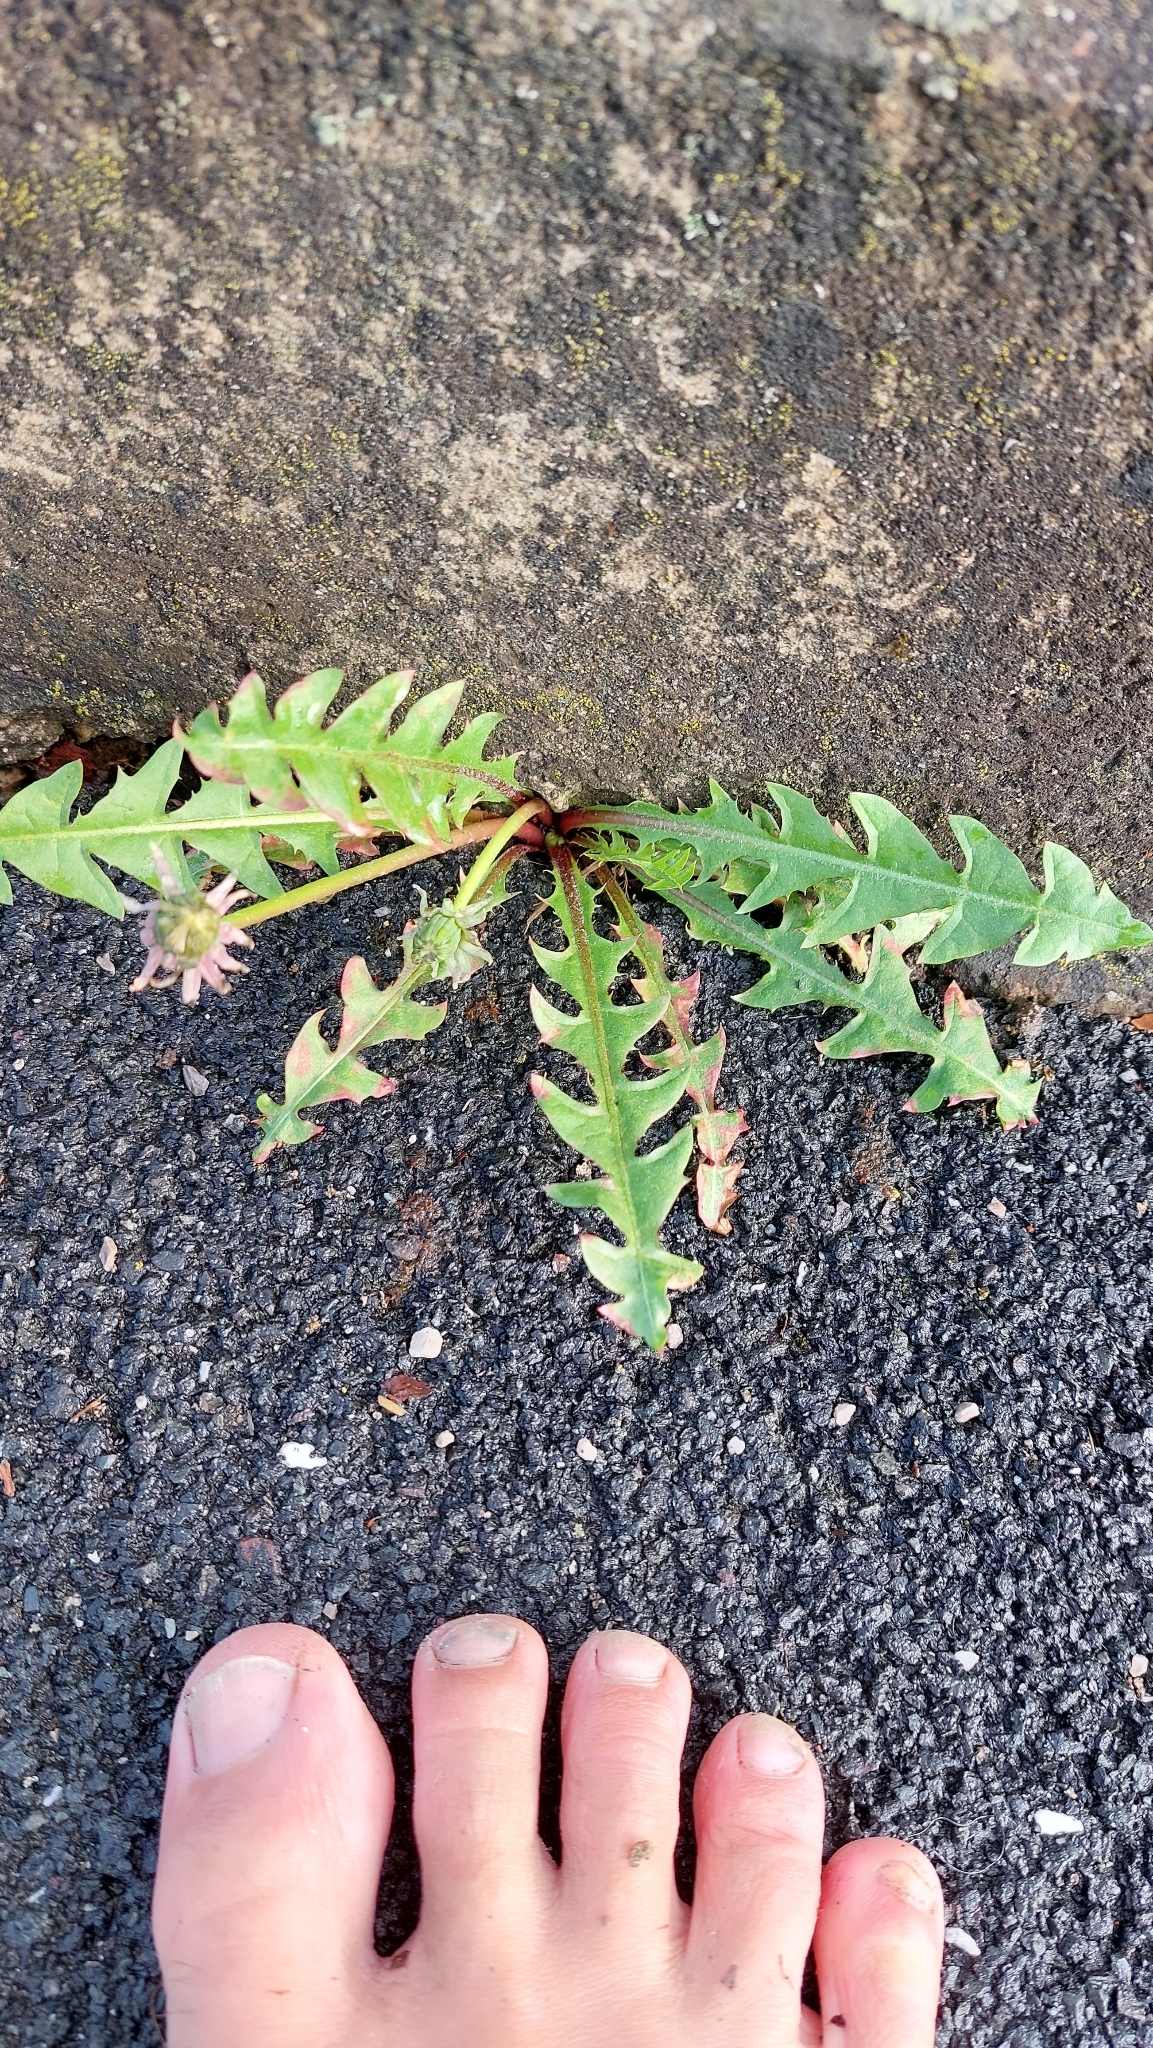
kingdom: Plantae
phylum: Tracheophyta
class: Magnoliopsida
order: Asterales
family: Asteraceae
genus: Taraxacum
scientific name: Taraxacum
